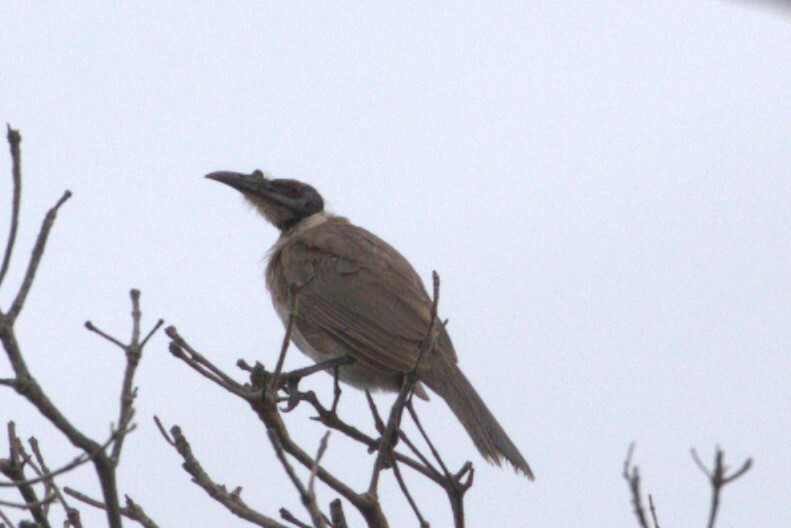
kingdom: Animalia
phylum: Chordata
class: Aves
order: Passeriformes
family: Meliphagidae
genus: Philemon
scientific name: Philemon corniculatus
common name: Noisy friarbird
